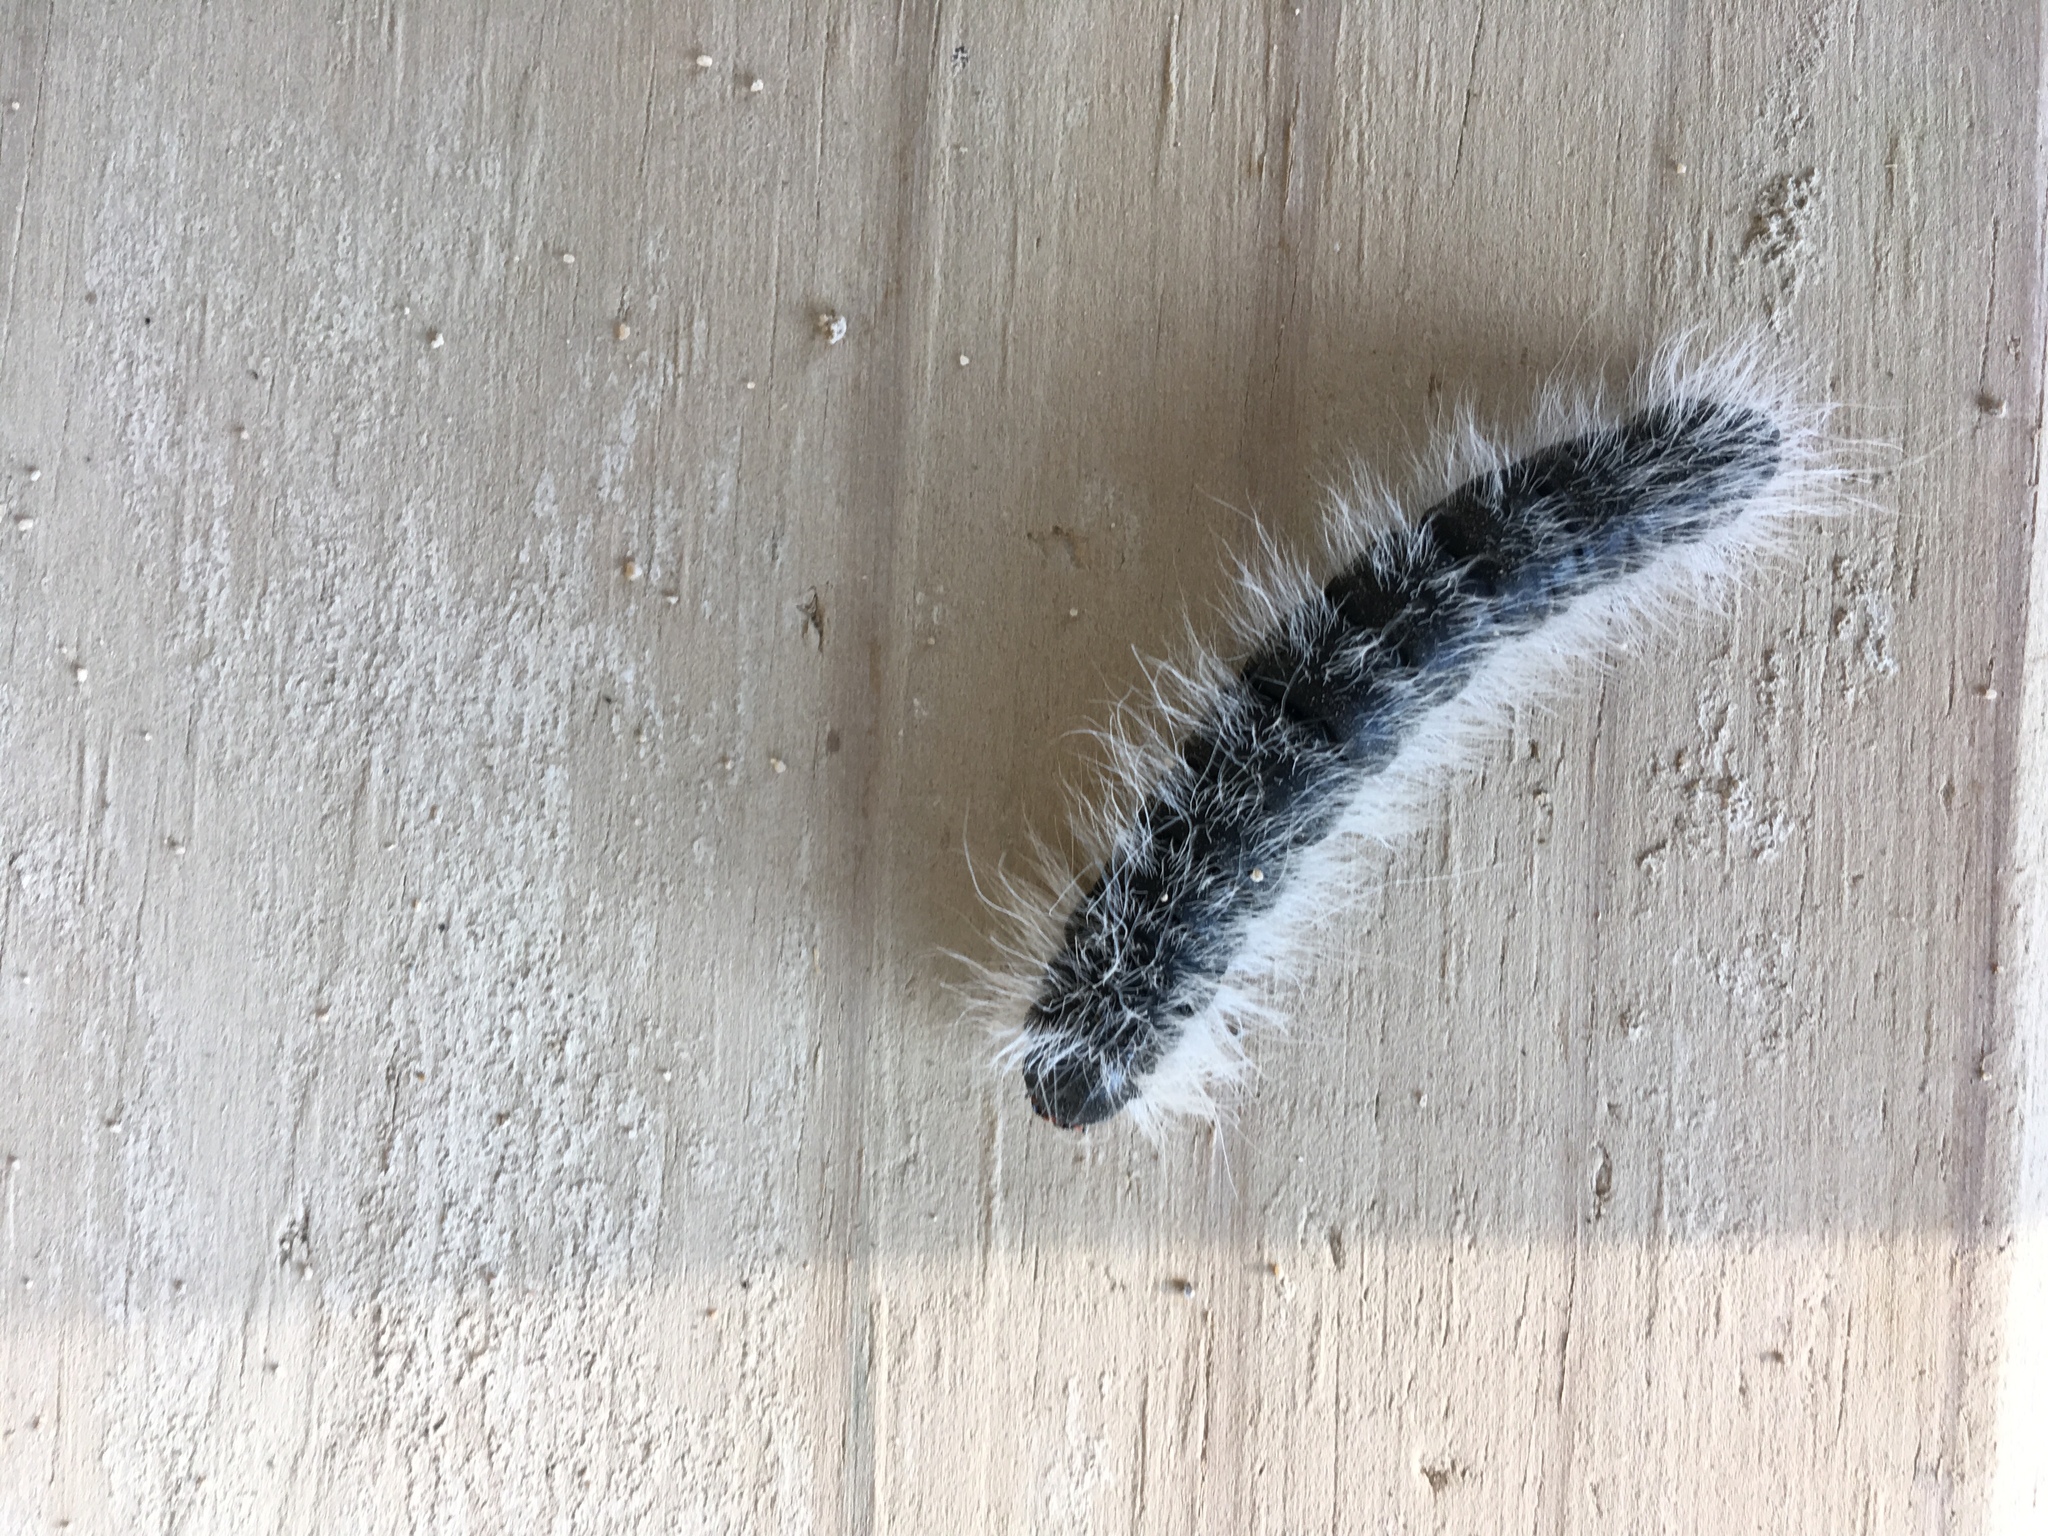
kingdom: Animalia
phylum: Arthropoda
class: Insecta
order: Lepidoptera
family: Notodontidae
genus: Datana
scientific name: Datana integerrima
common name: Walnut caterpillar
